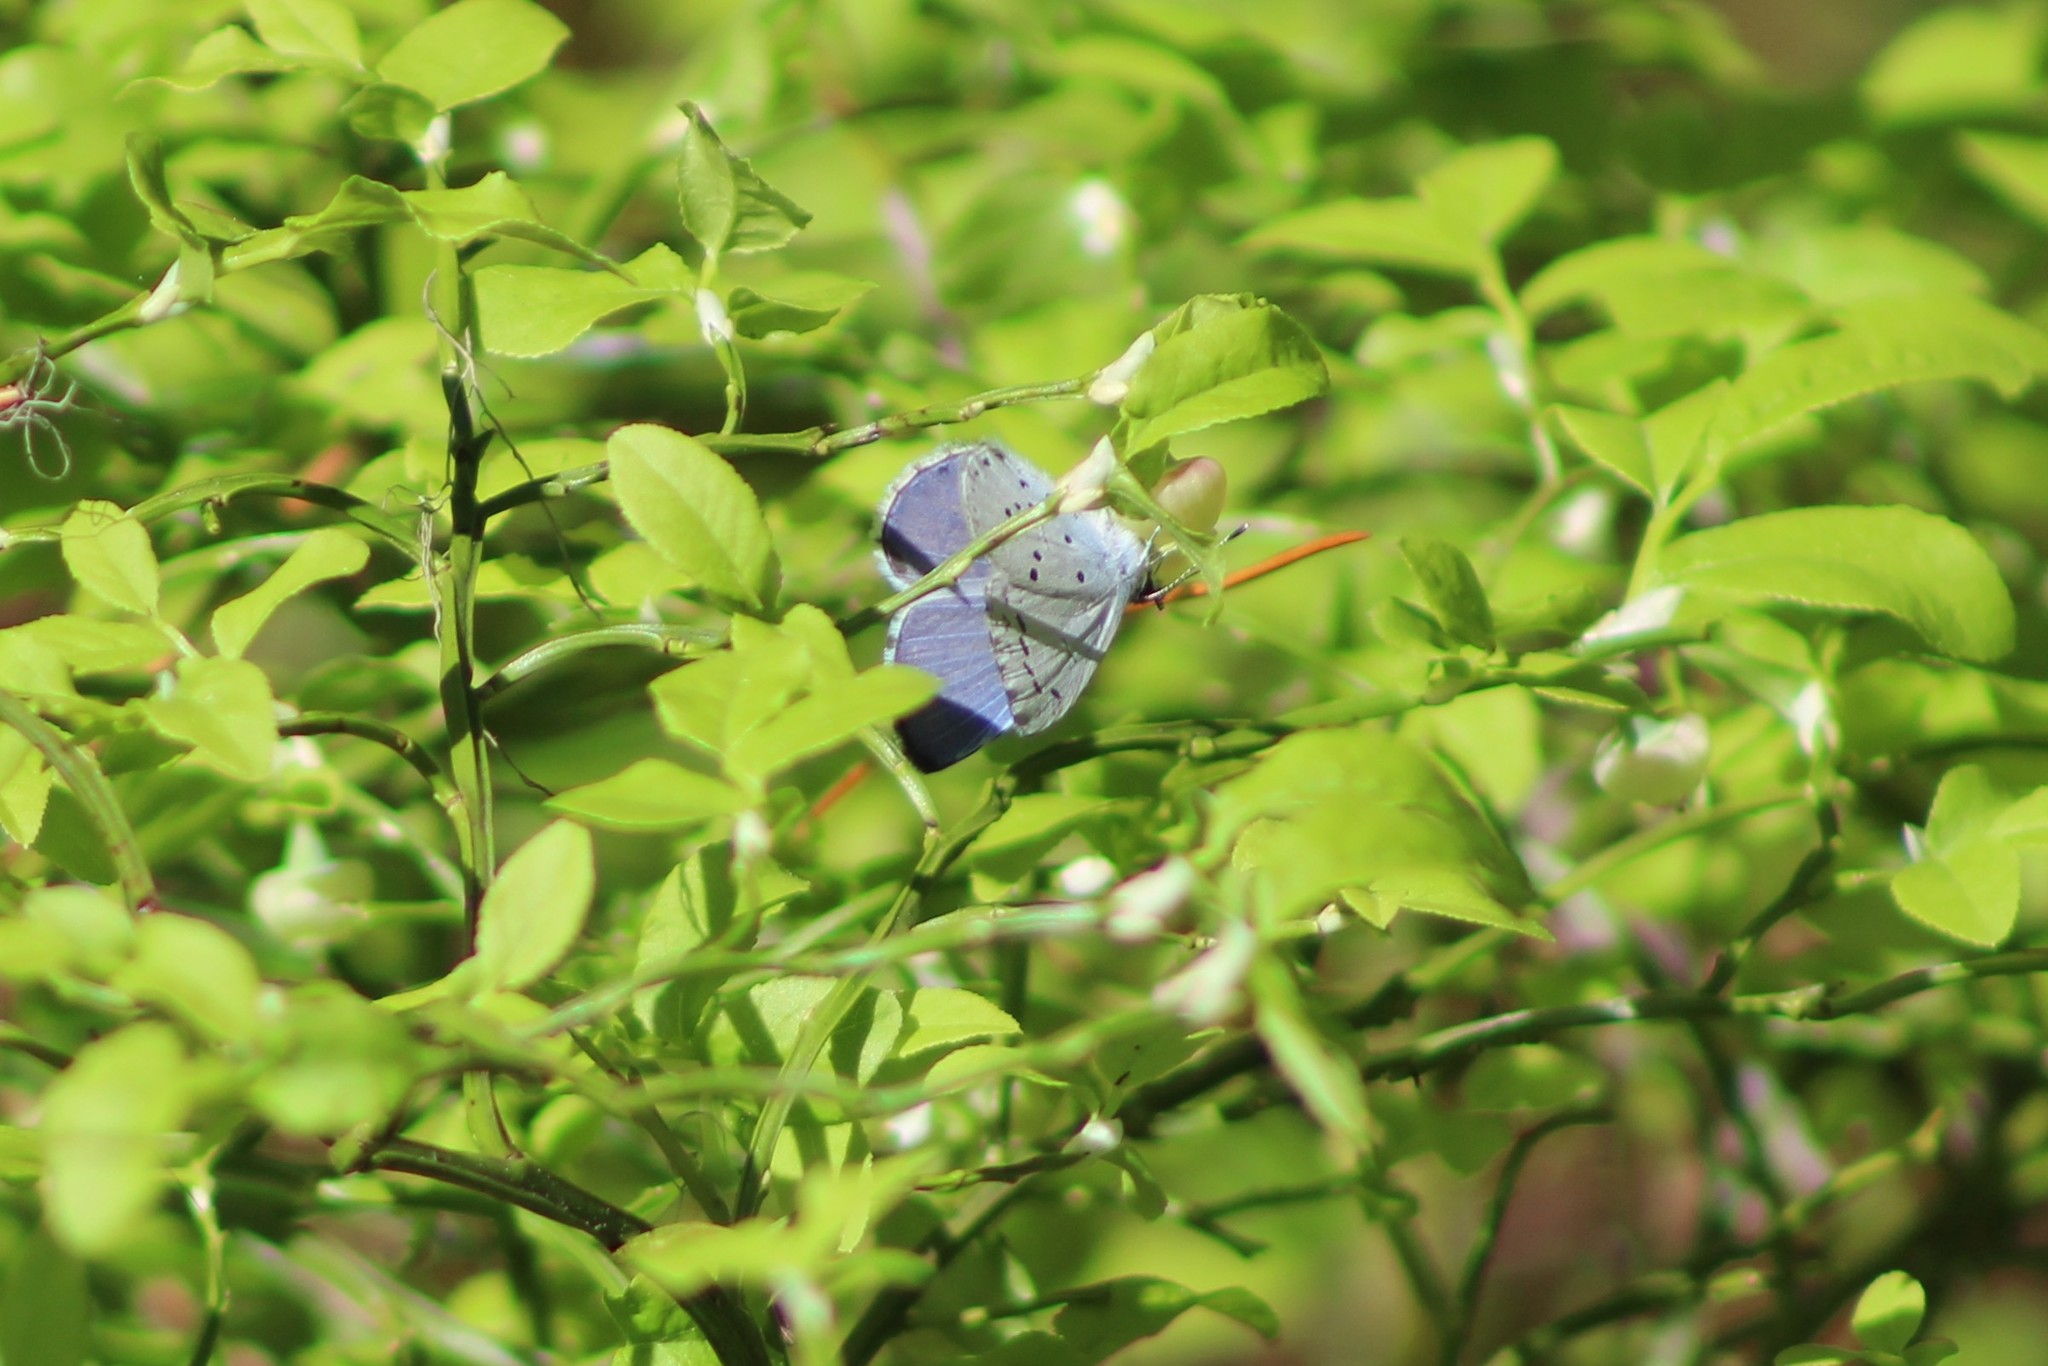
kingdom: Animalia
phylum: Arthropoda
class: Insecta
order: Lepidoptera
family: Lycaenidae
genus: Celastrina
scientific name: Celastrina argiolus
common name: Holly blue
